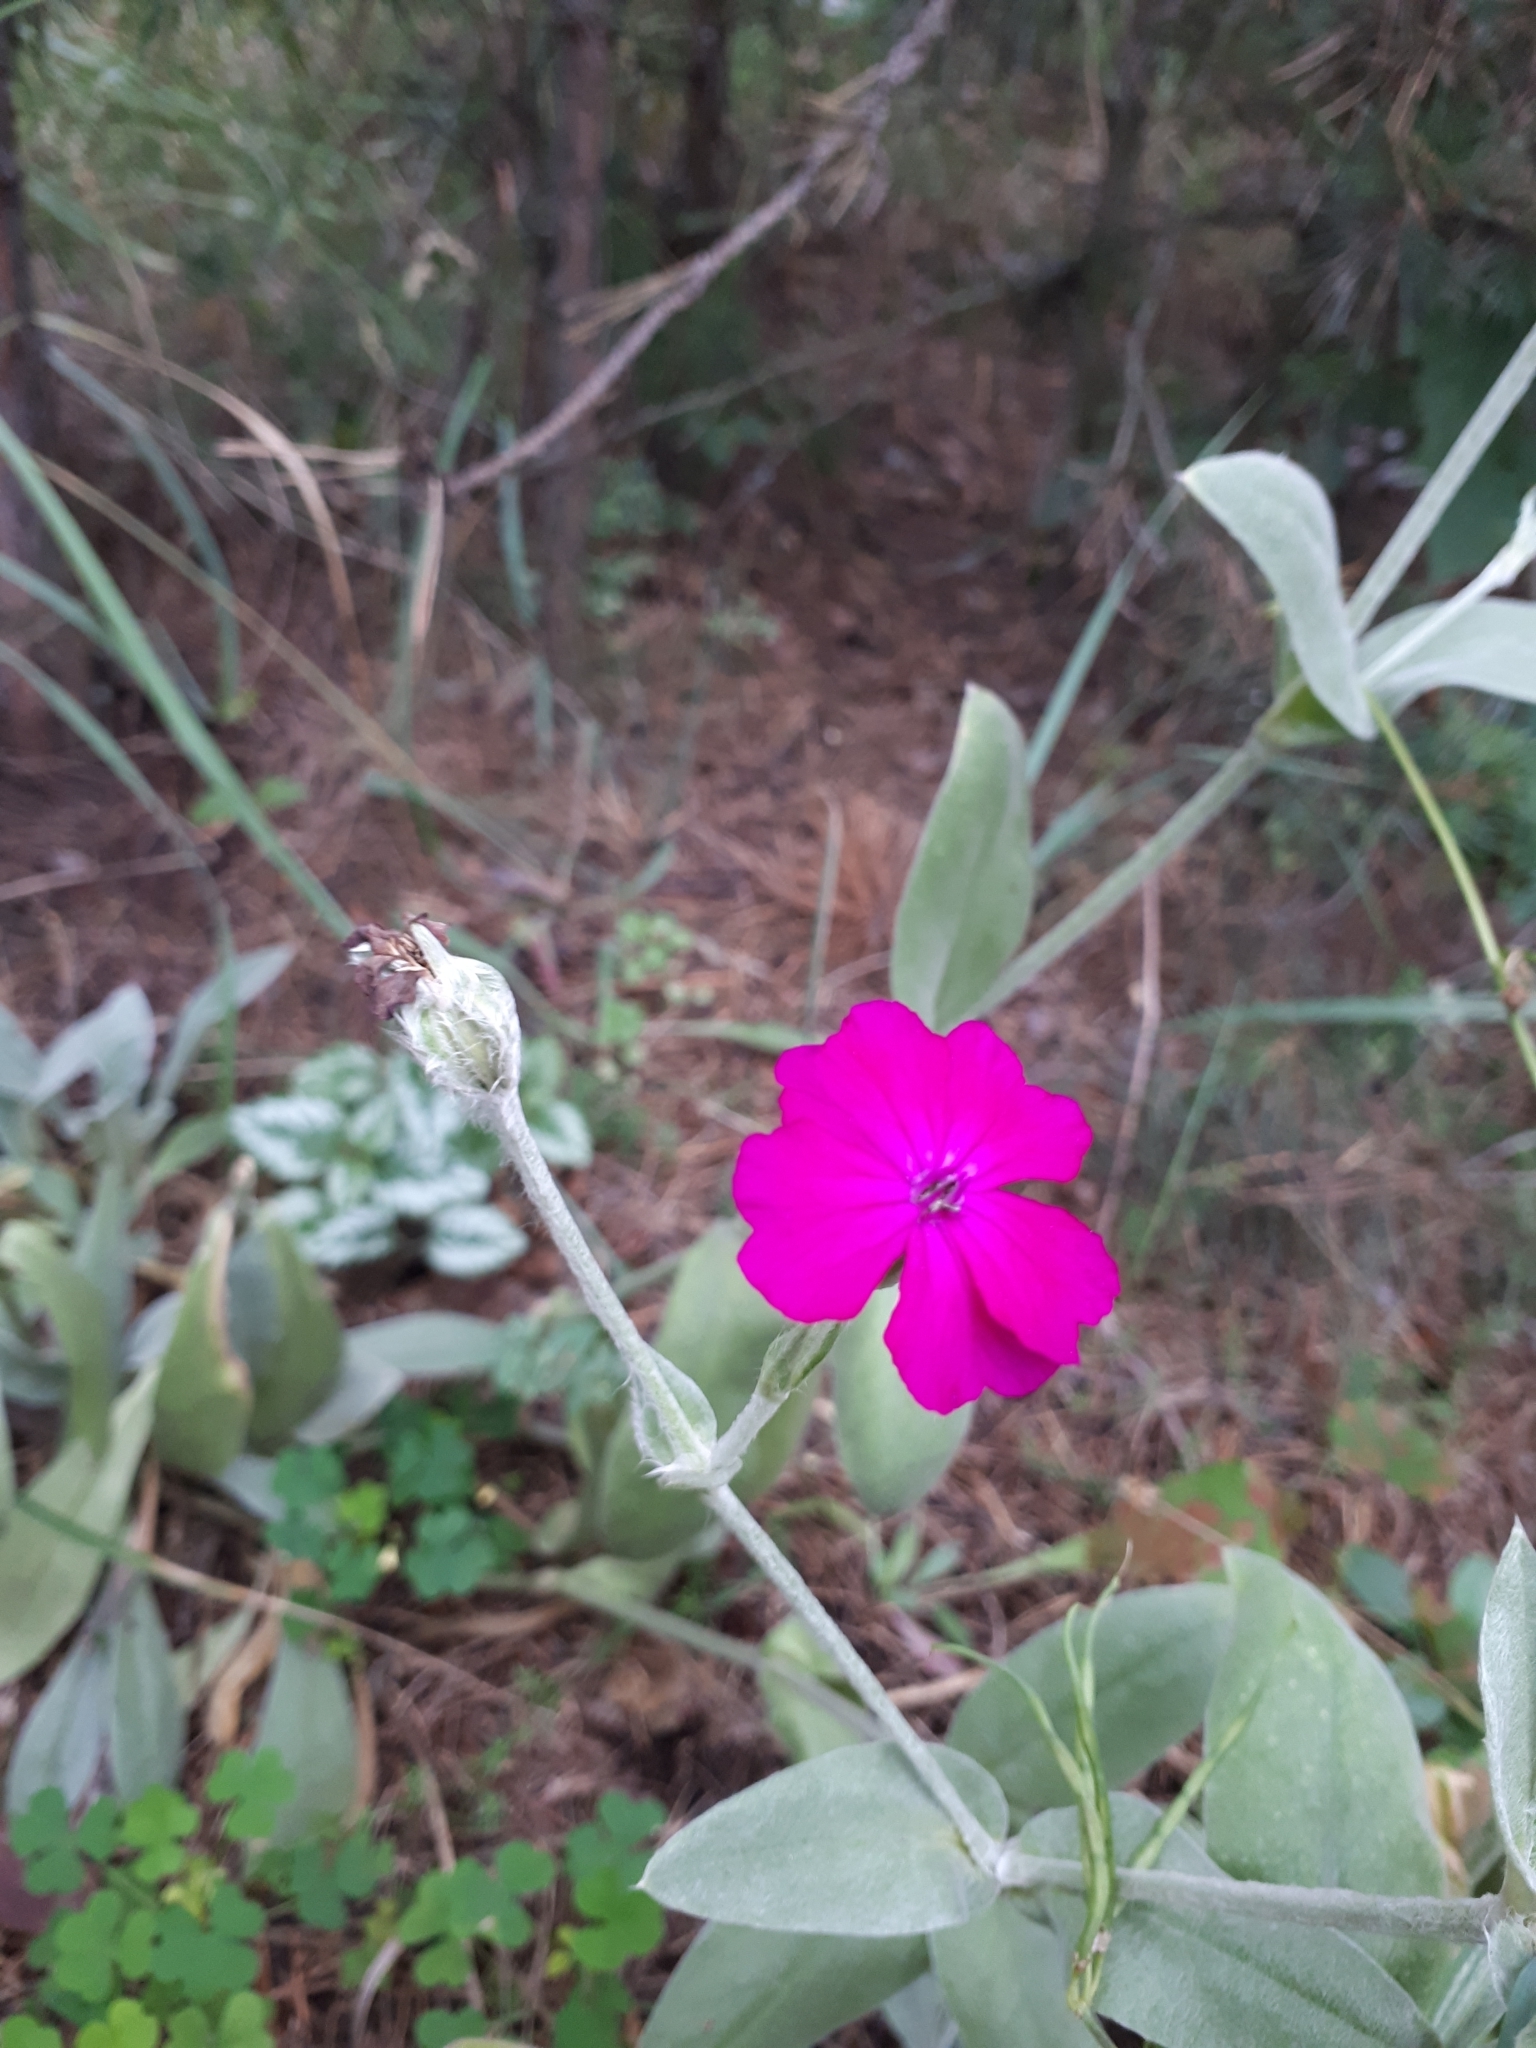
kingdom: Plantae
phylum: Tracheophyta
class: Magnoliopsida
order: Caryophyllales
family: Caryophyllaceae
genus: Silene
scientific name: Silene coronaria
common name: Rose campion
